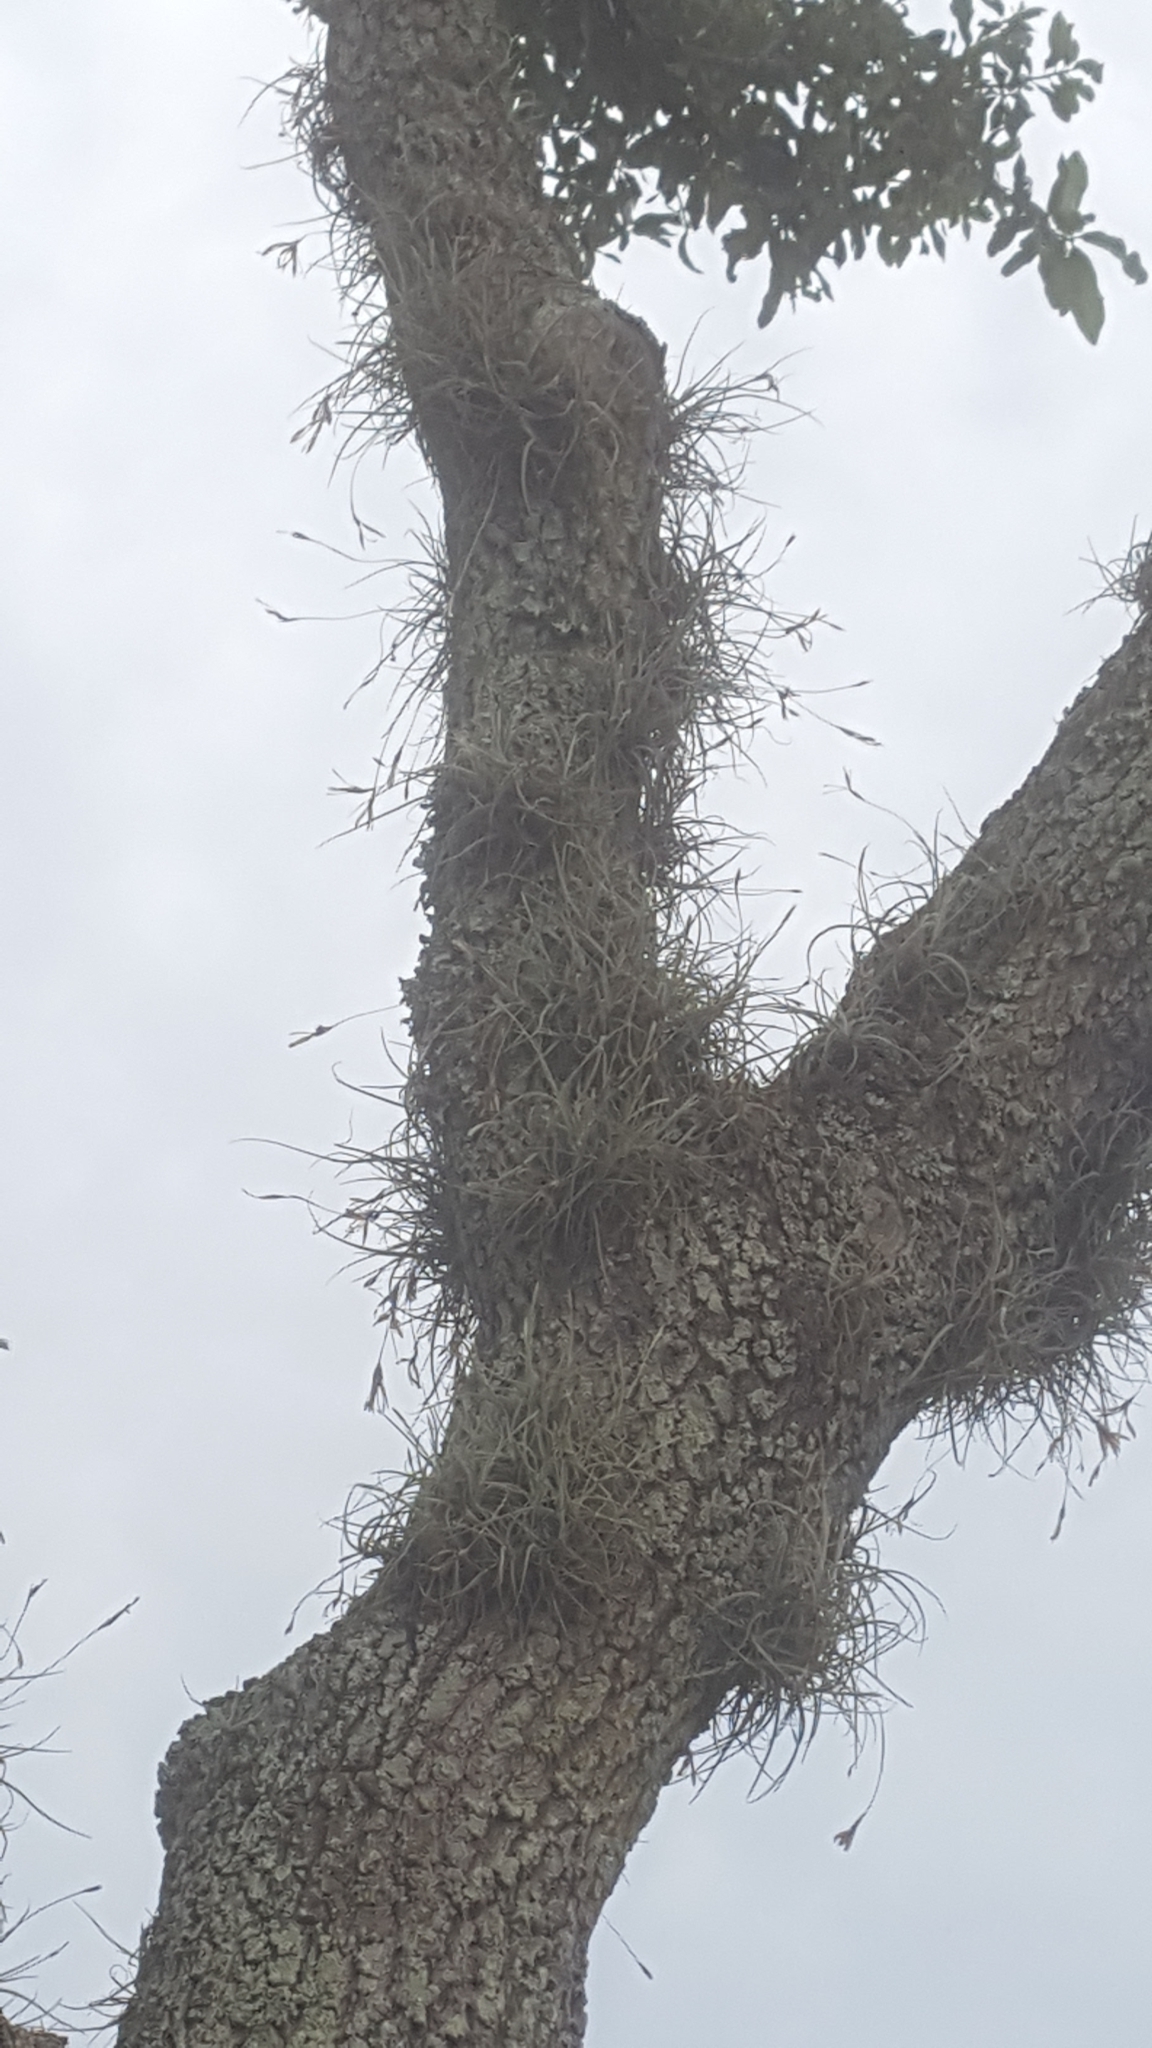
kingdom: Plantae
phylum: Tracheophyta
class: Liliopsida
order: Poales
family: Bromeliaceae
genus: Tillandsia
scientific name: Tillandsia recurvata
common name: Small ballmoss
